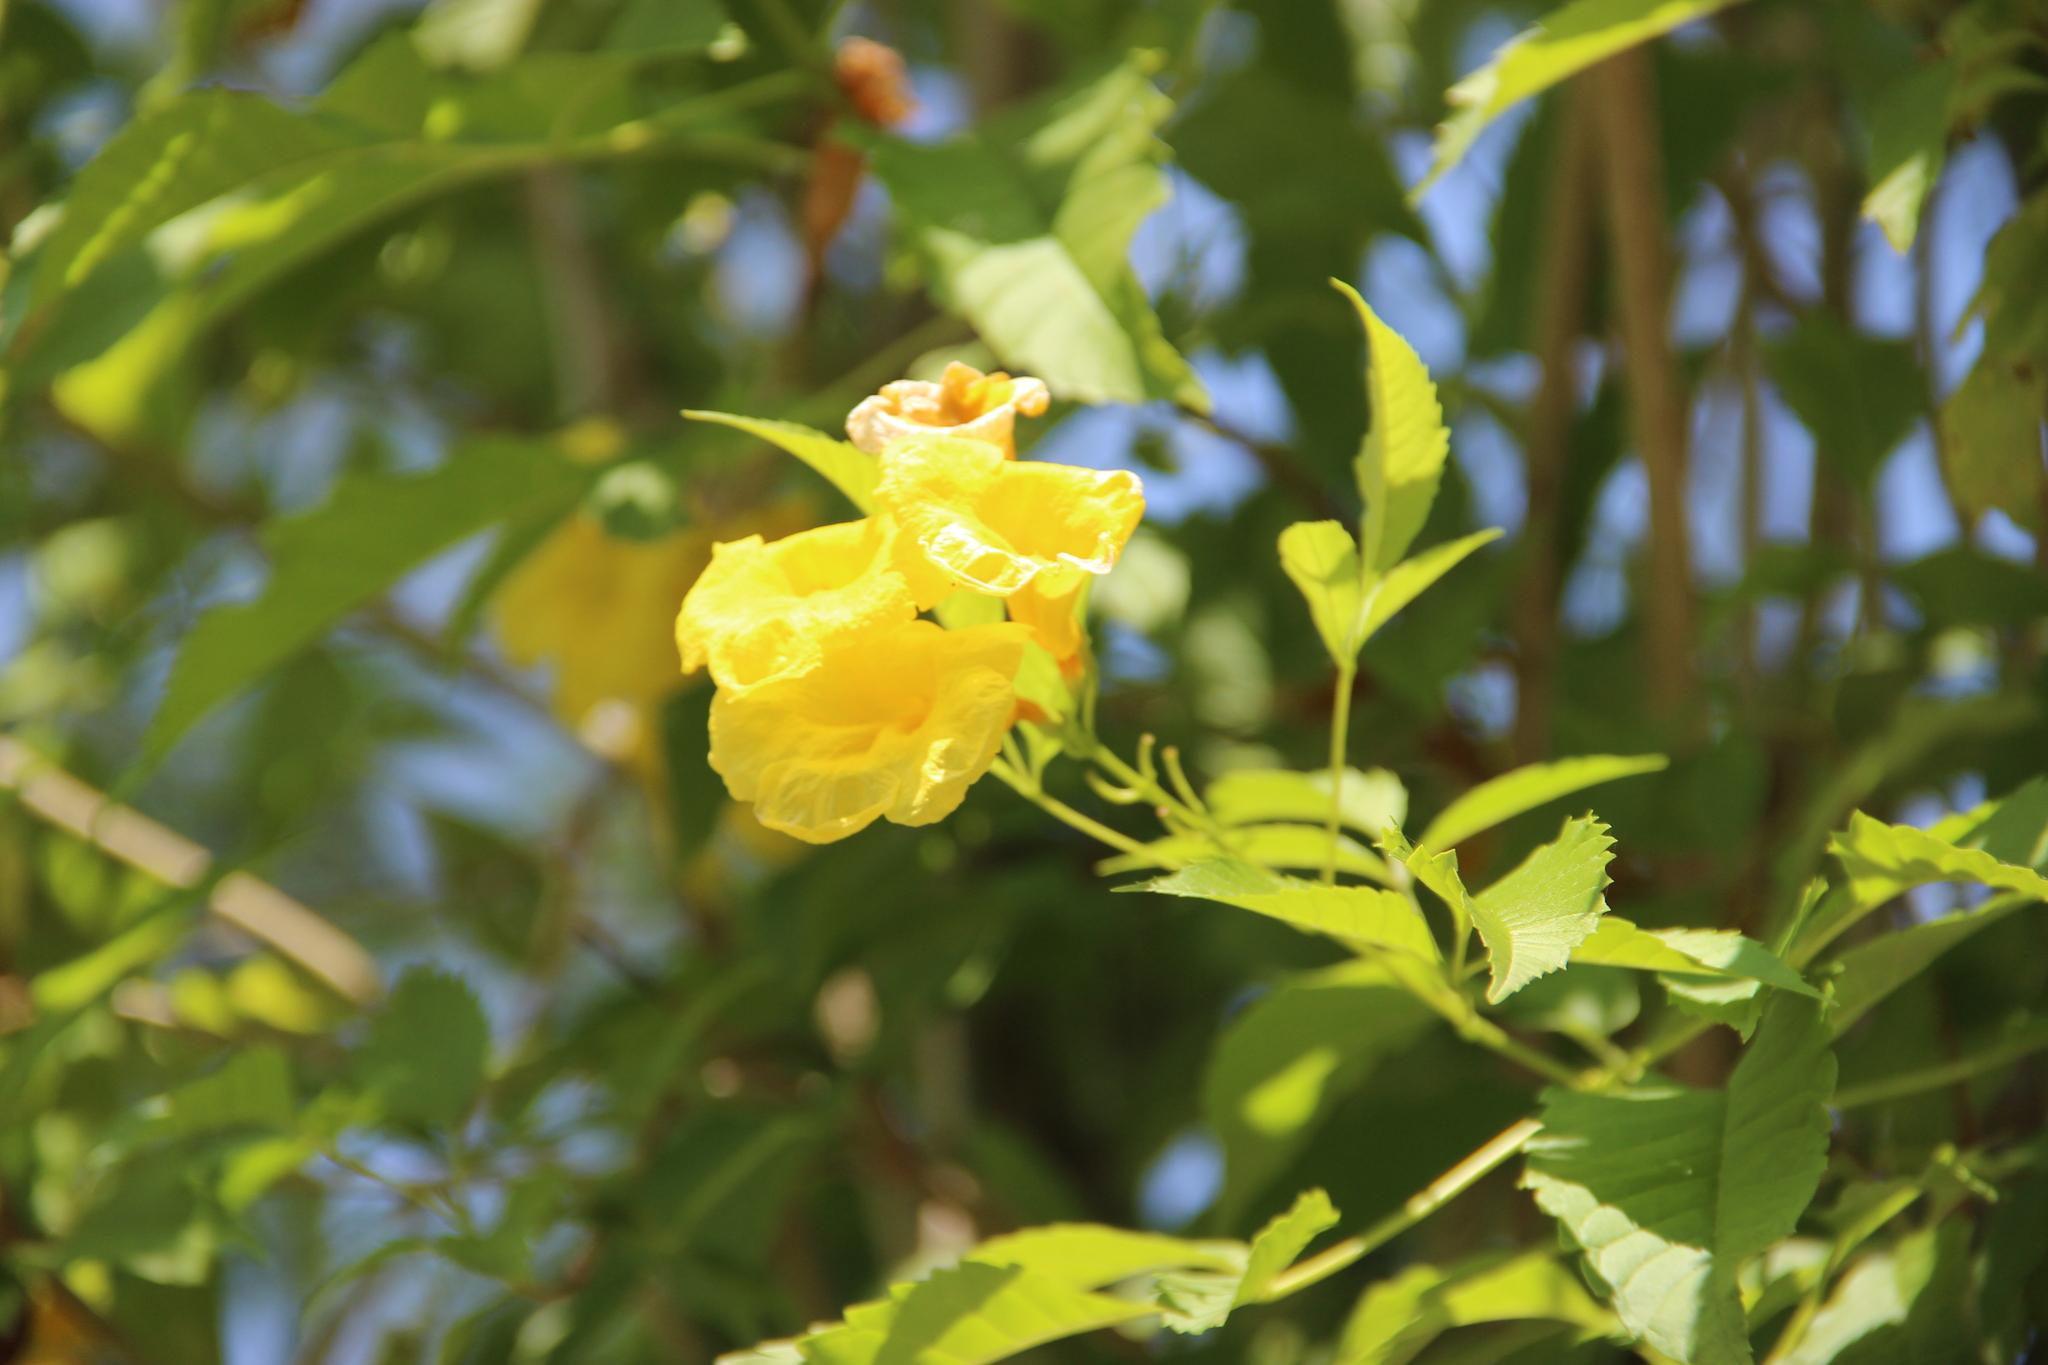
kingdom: Plantae
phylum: Tracheophyta
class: Magnoliopsida
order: Lamiales
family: Bignoniaceae
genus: Tecoma
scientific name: Tecoma stans
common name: Yellow trumpetbush
